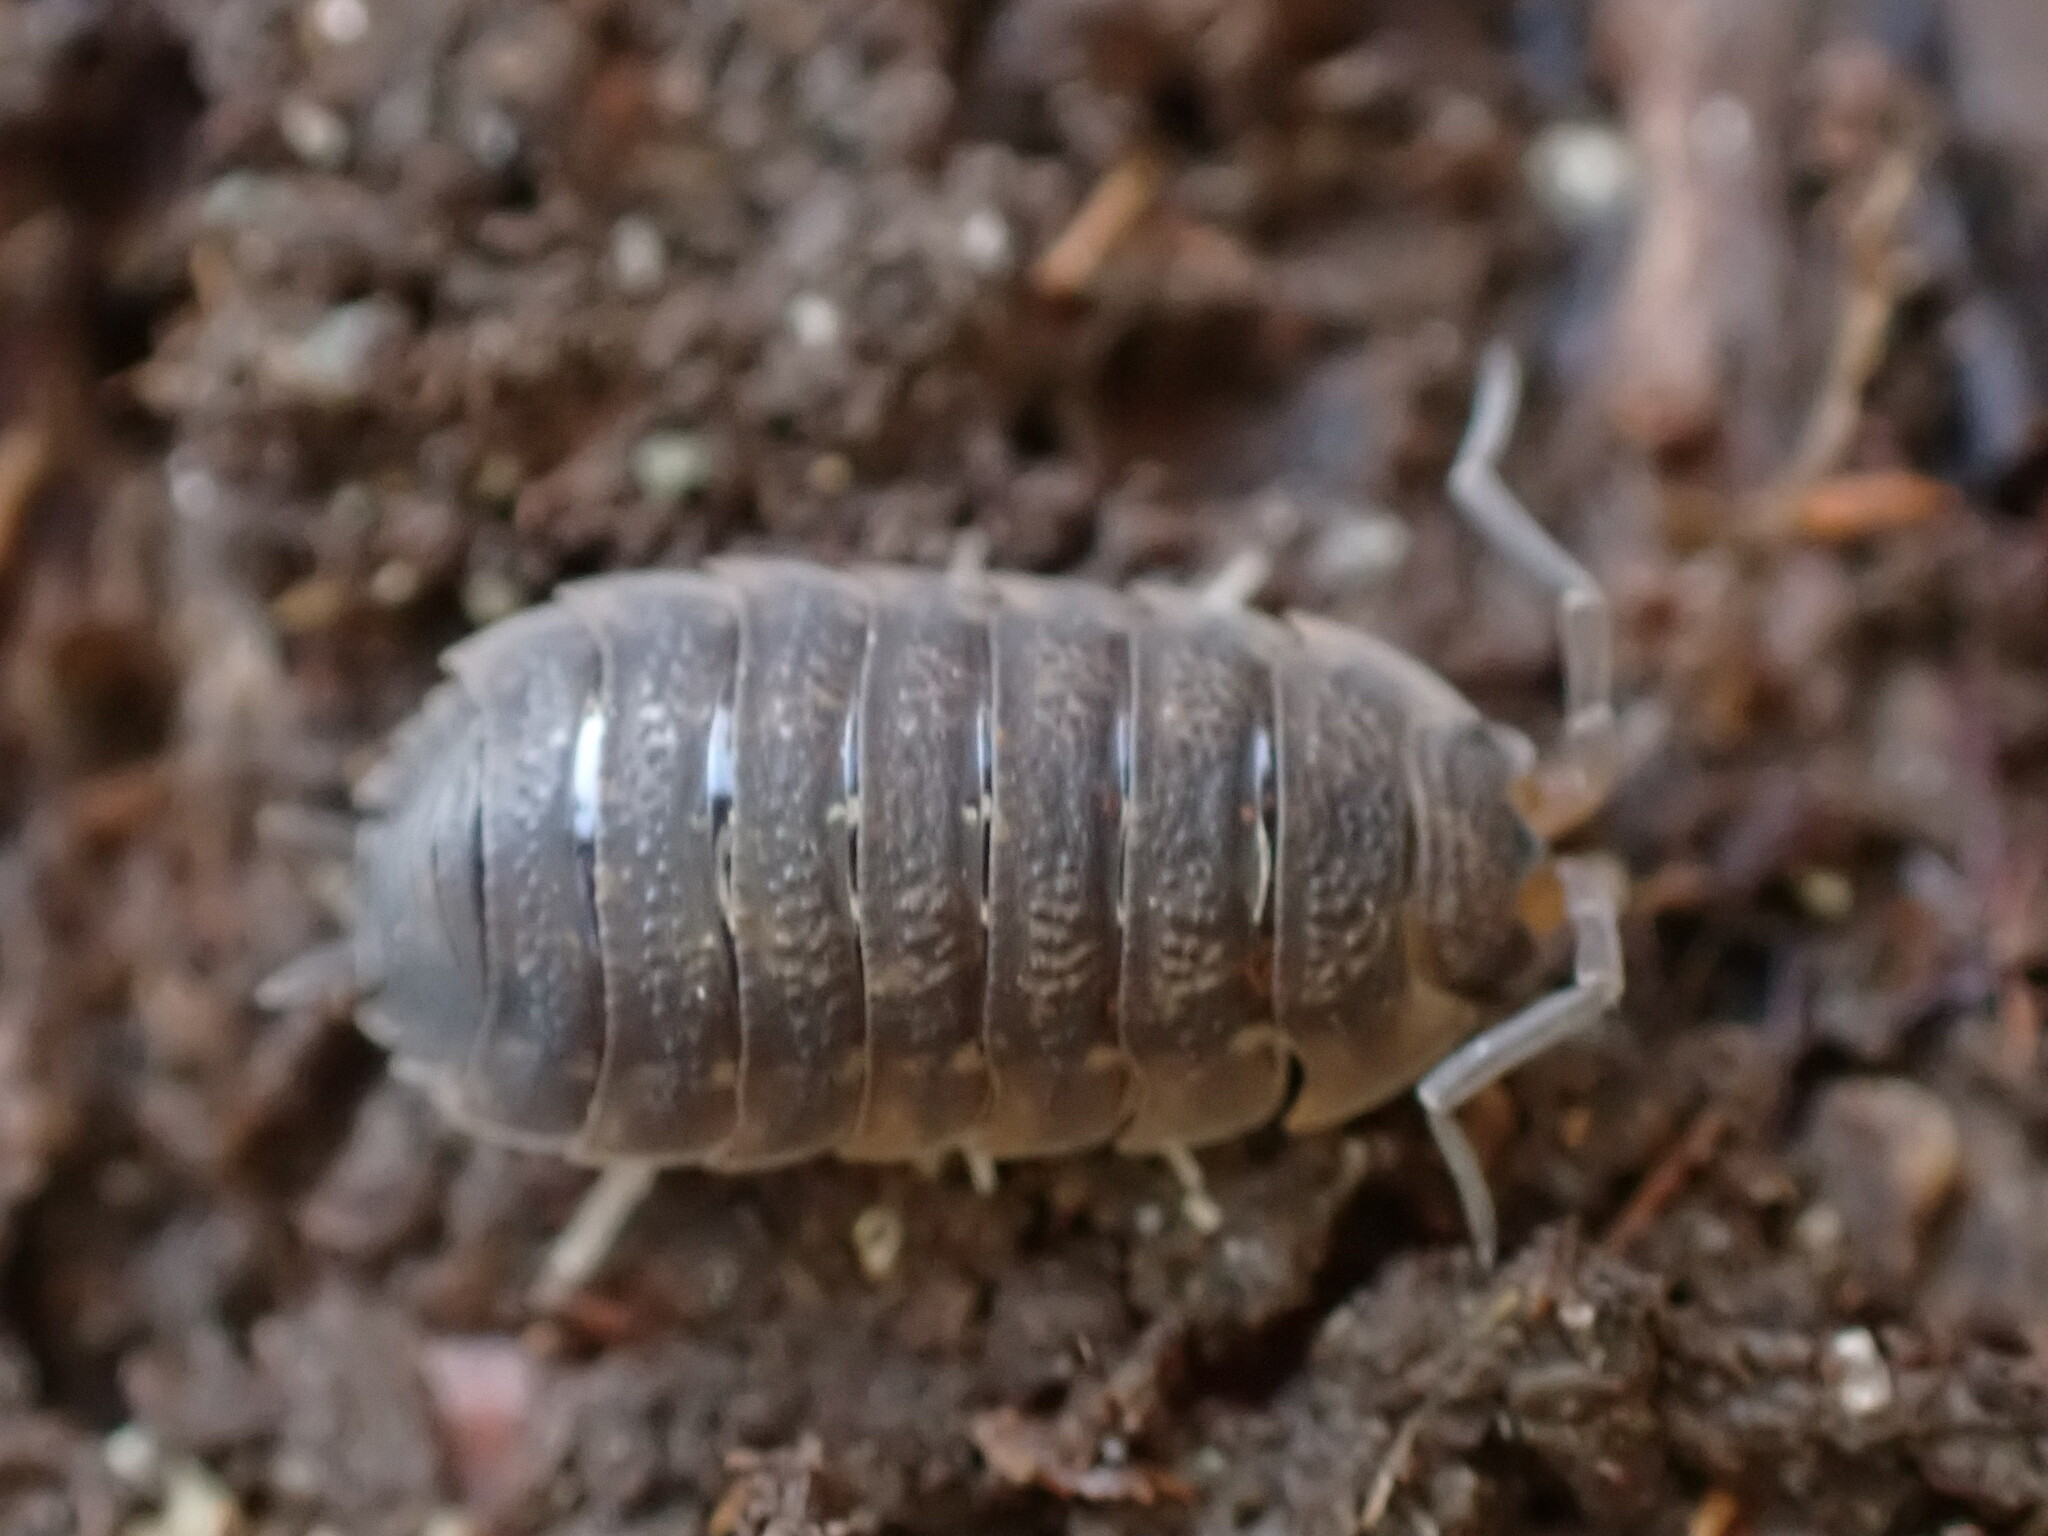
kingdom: Animalia
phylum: Arthropoda
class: Malacostraca
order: Isopoda
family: Porcellionidae
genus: Porcellio
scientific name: Porcellio scaber
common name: Common rough woodlouse
